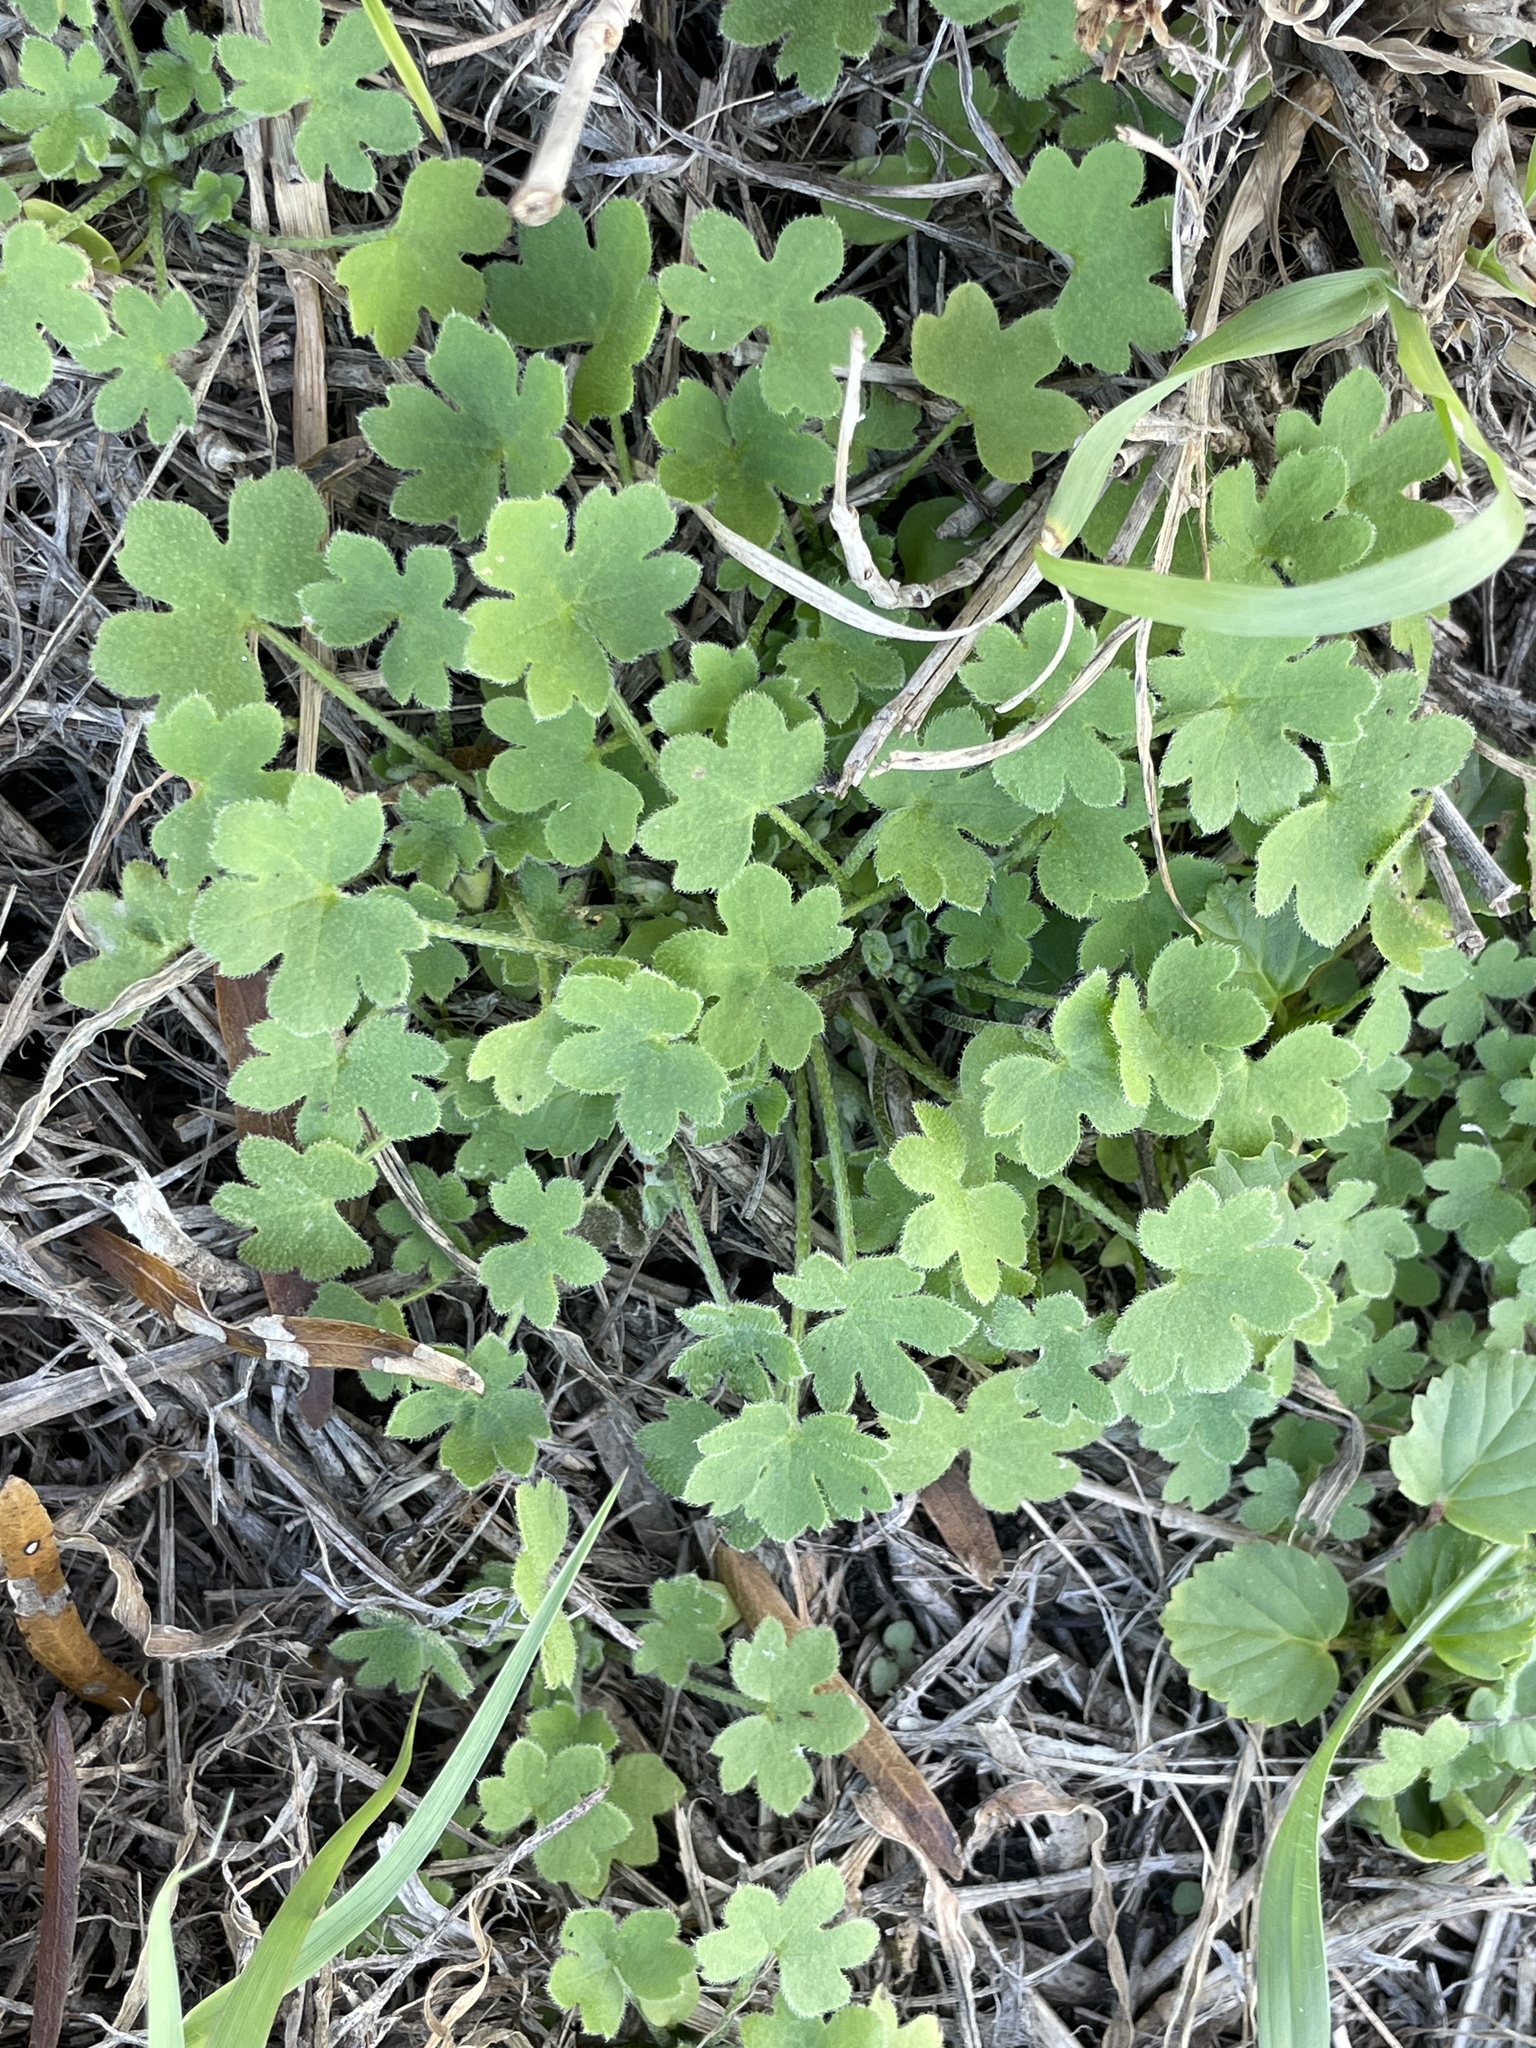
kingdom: Plantae
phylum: Tracheophyta
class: Magnoliopsida
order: Apiales
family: Apiaceae
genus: Bowlesia
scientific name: Bowlesia incana
